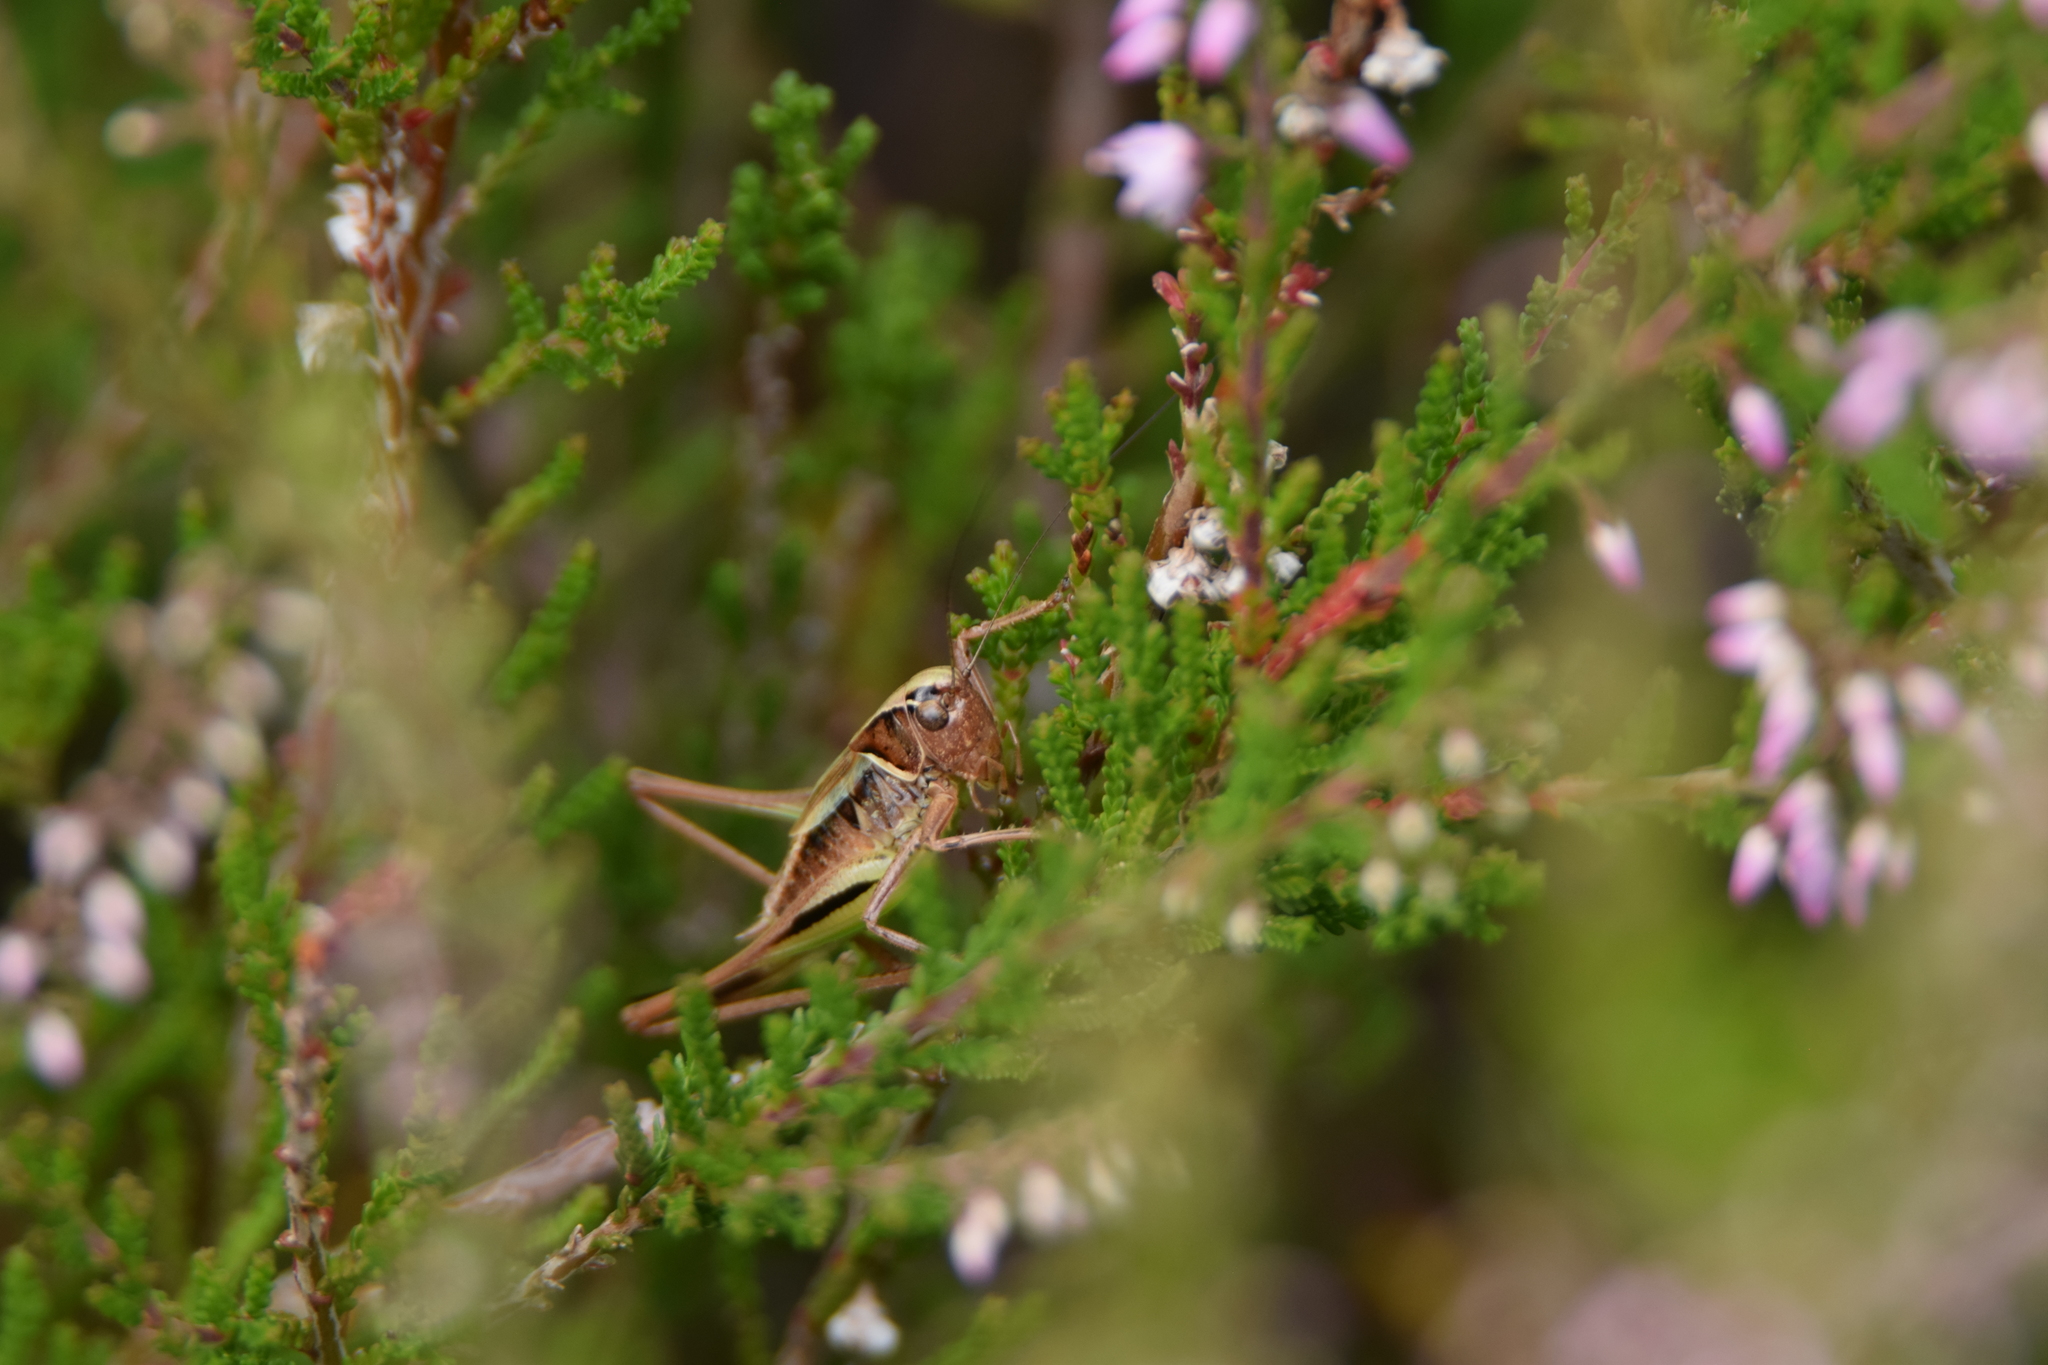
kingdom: Animalia
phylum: Arthropoda
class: Insecta
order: Orthoptera
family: Tettigoniidae
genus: Metrioptera
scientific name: Metrioptera brachyptera
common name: Bog bush-cricket
